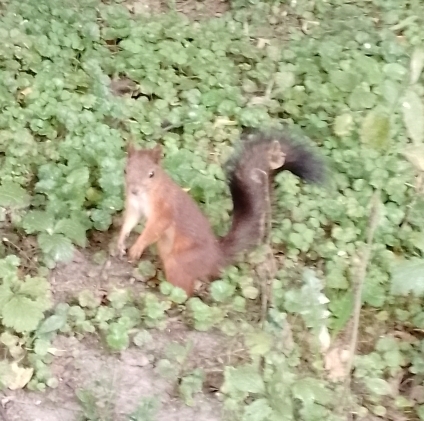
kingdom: Animalia
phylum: Chordata
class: Mammalia
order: Rodentia
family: Sciuridae
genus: Sciurus
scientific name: Sciurus vulgaris
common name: Eurasian red squirrel
